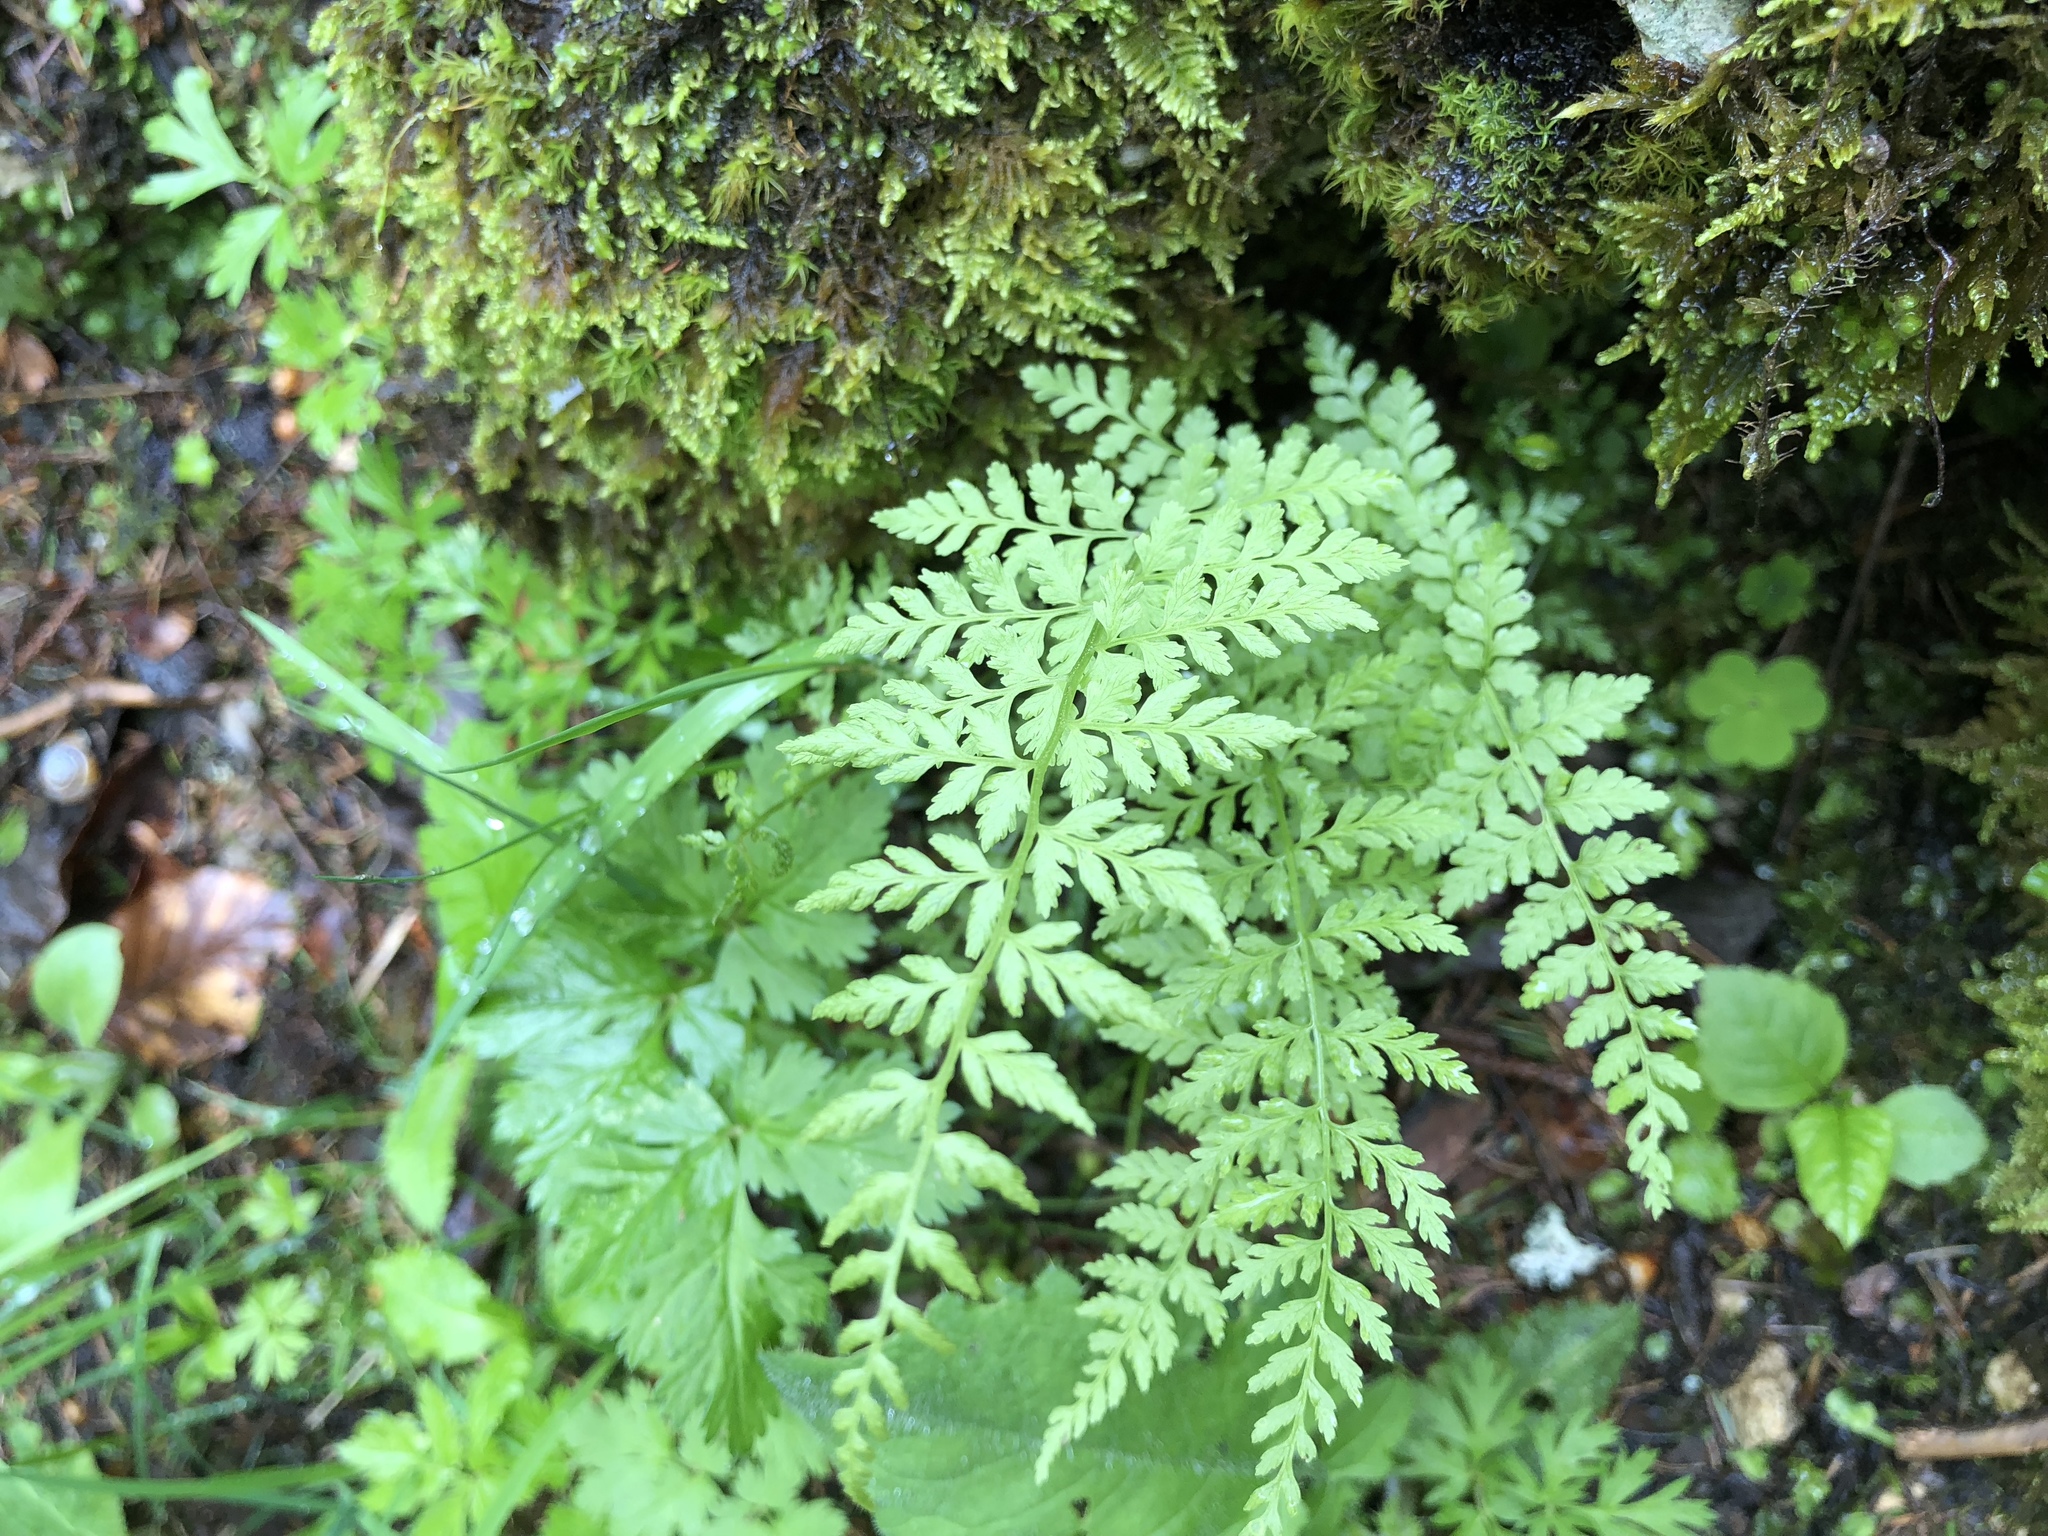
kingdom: Plantae
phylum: Tracheophyta
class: Polypodiopsida
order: Polypodiales
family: Cystopteridaceae
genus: Cystopteris
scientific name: Cystopteris fragilis
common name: Brittle bladder fern
